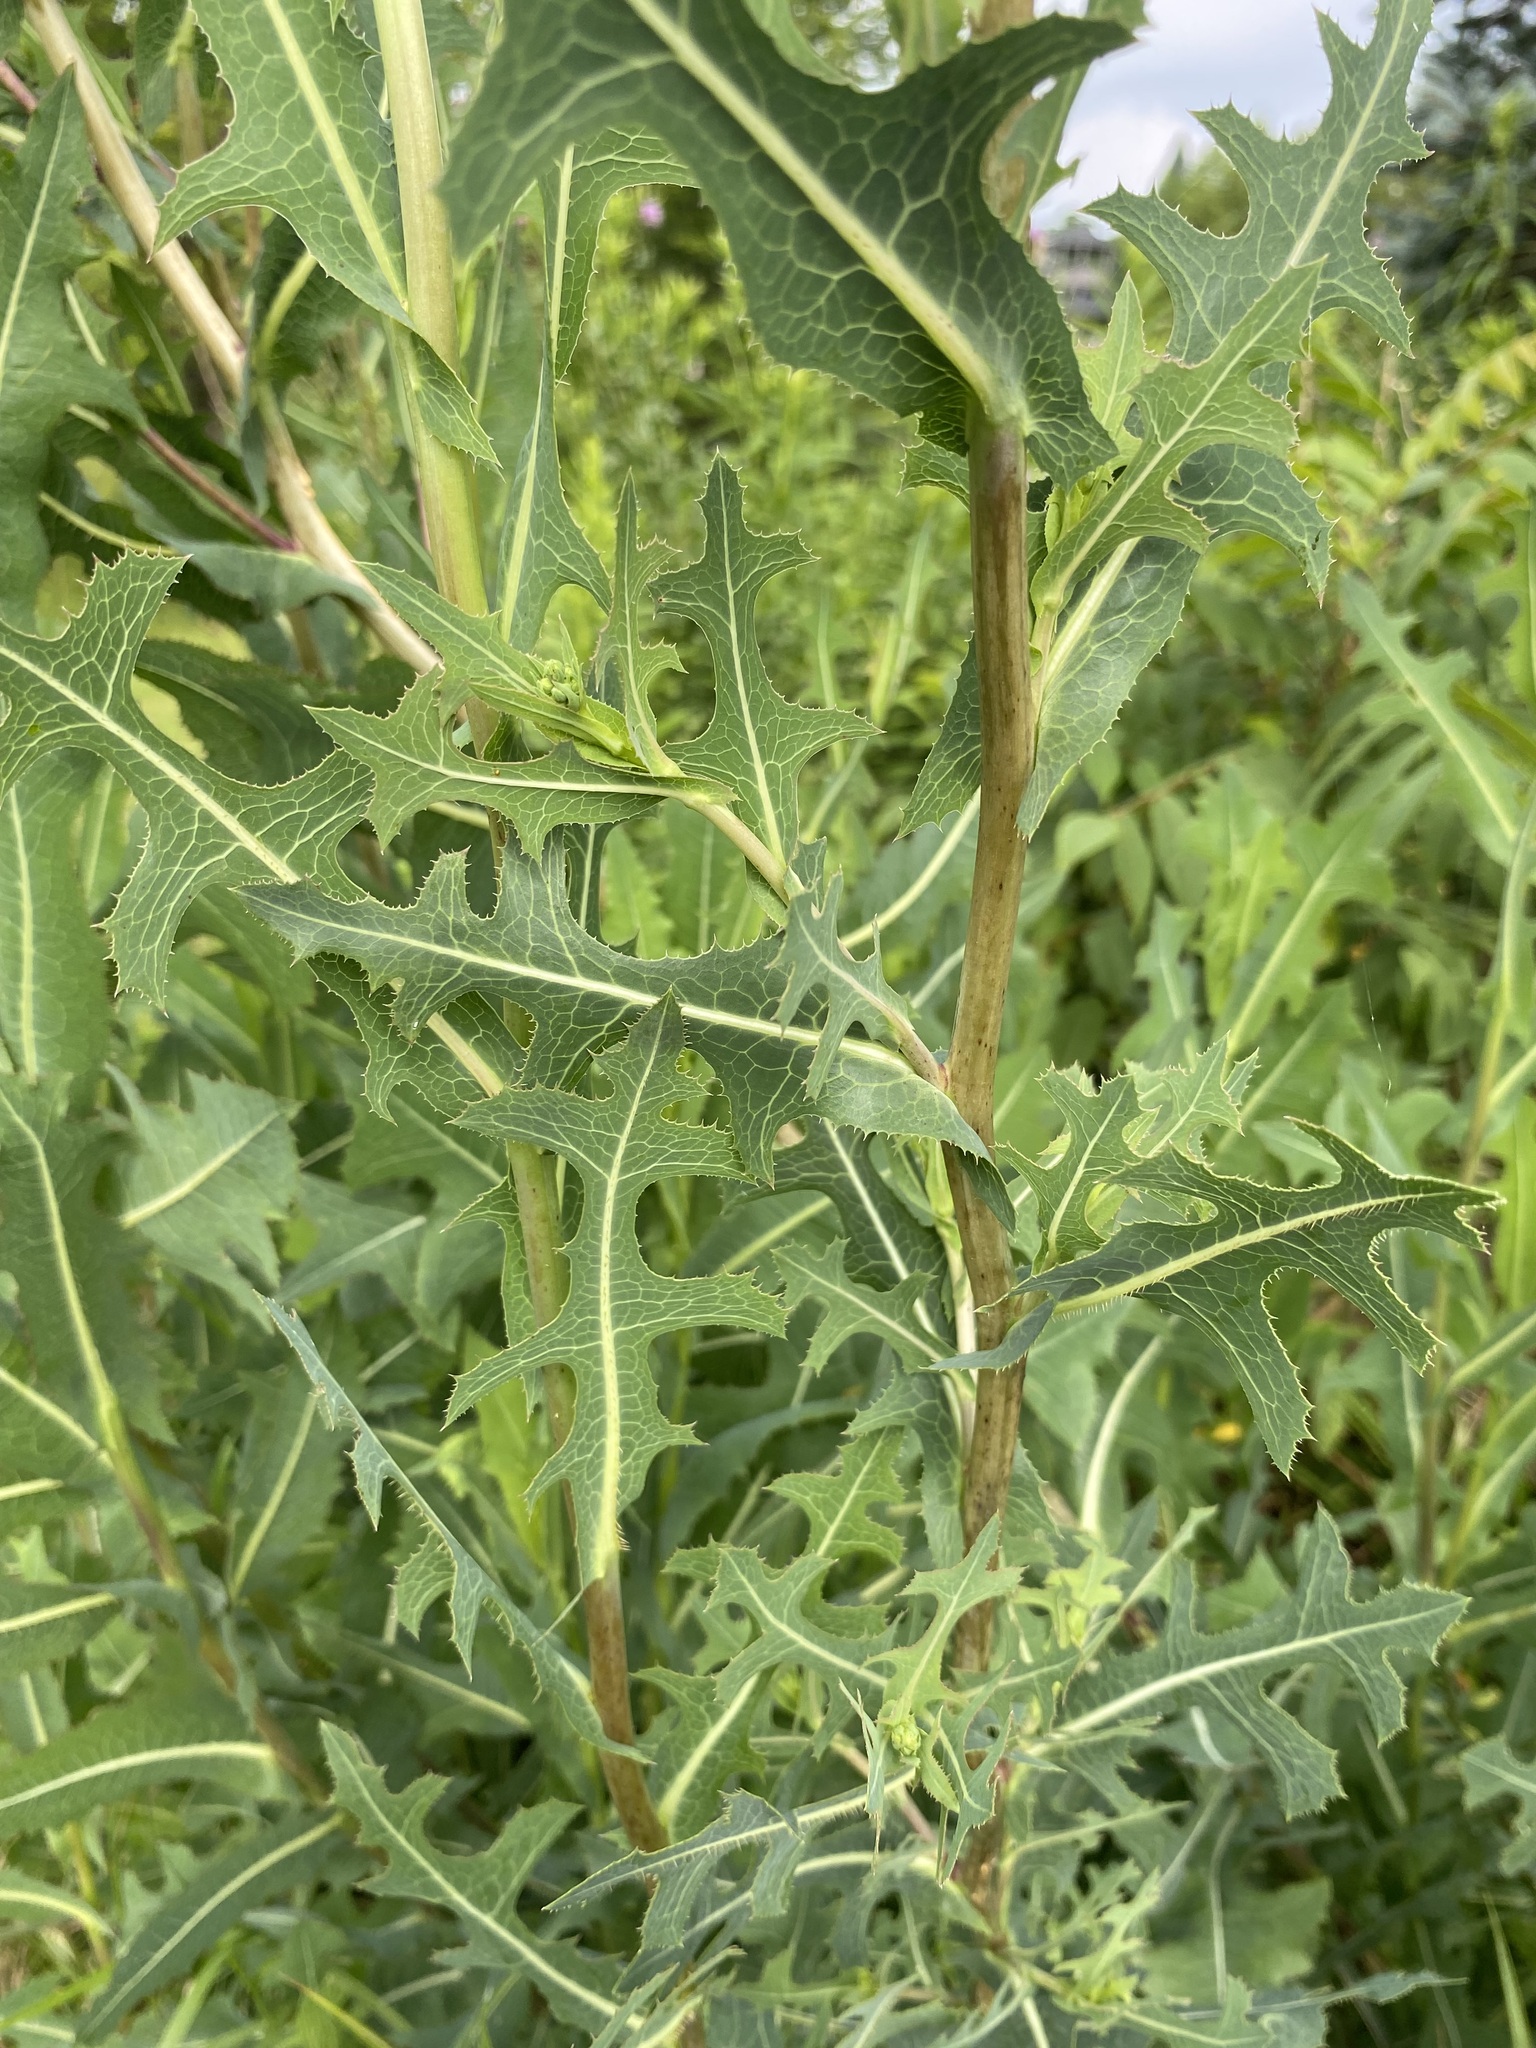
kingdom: Plantae
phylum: Tracheophyta
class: Magnoliopsida
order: Asterales
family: Asteraceae
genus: Lactuca
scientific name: Lactuca serriola
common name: Prickly lettuce
